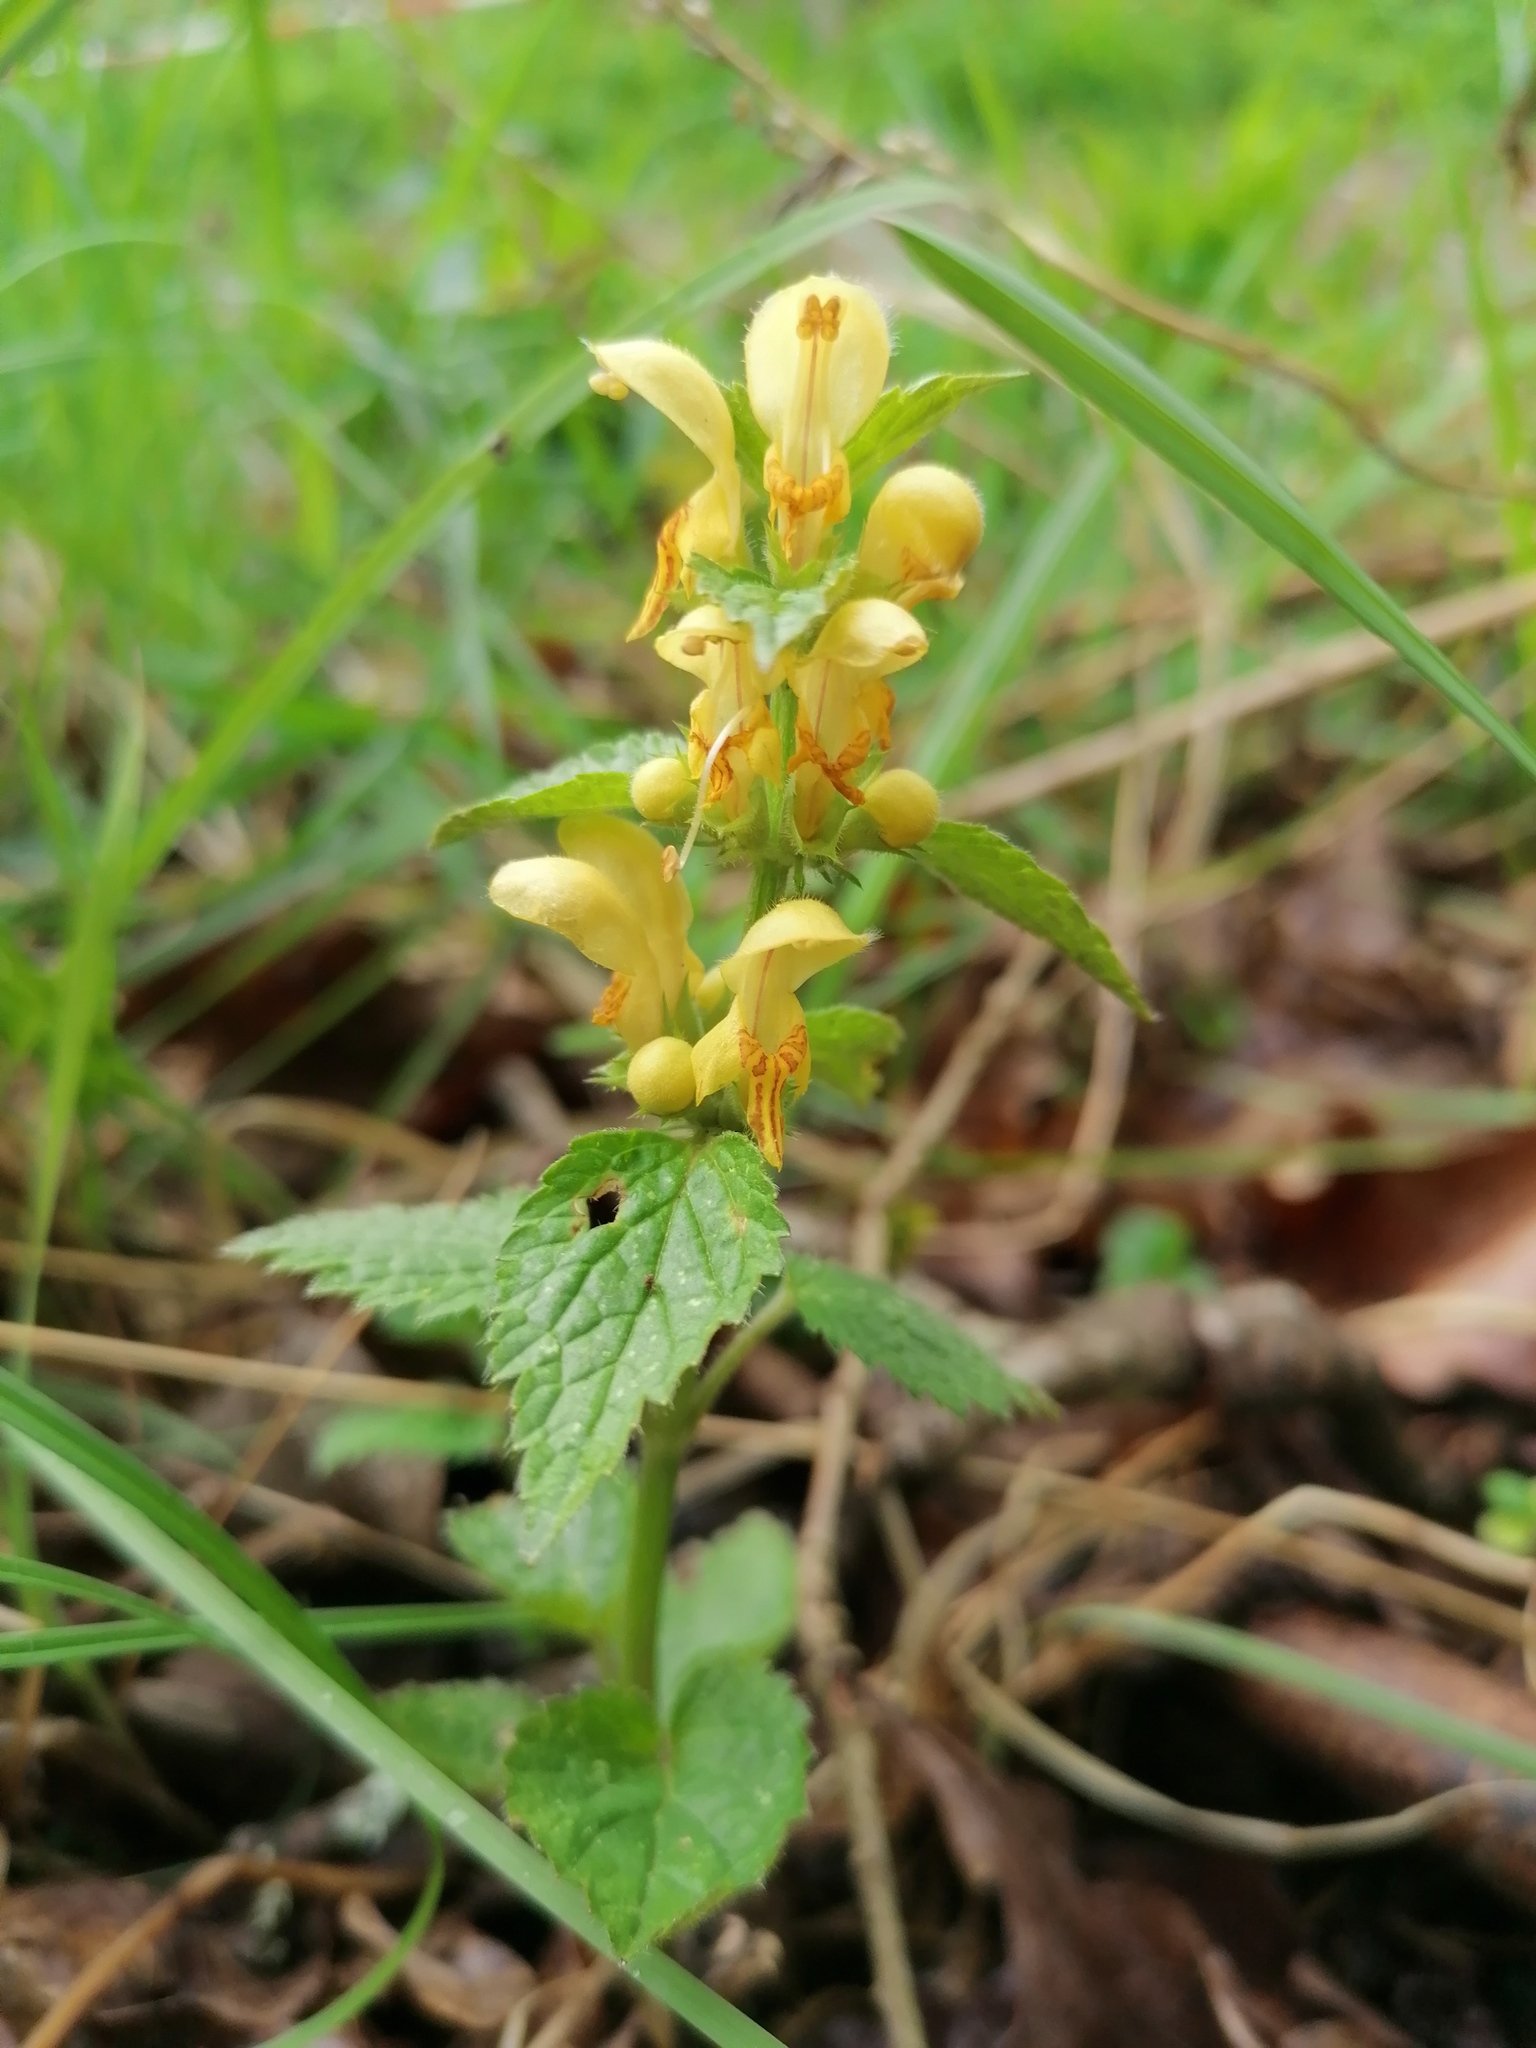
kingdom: Plantae
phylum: Tracheophyta
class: Magnoliopsida
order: Lamiales
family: Lamiaceae
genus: Lamium
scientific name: Lamium galeobdolon
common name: Yellow archangel
